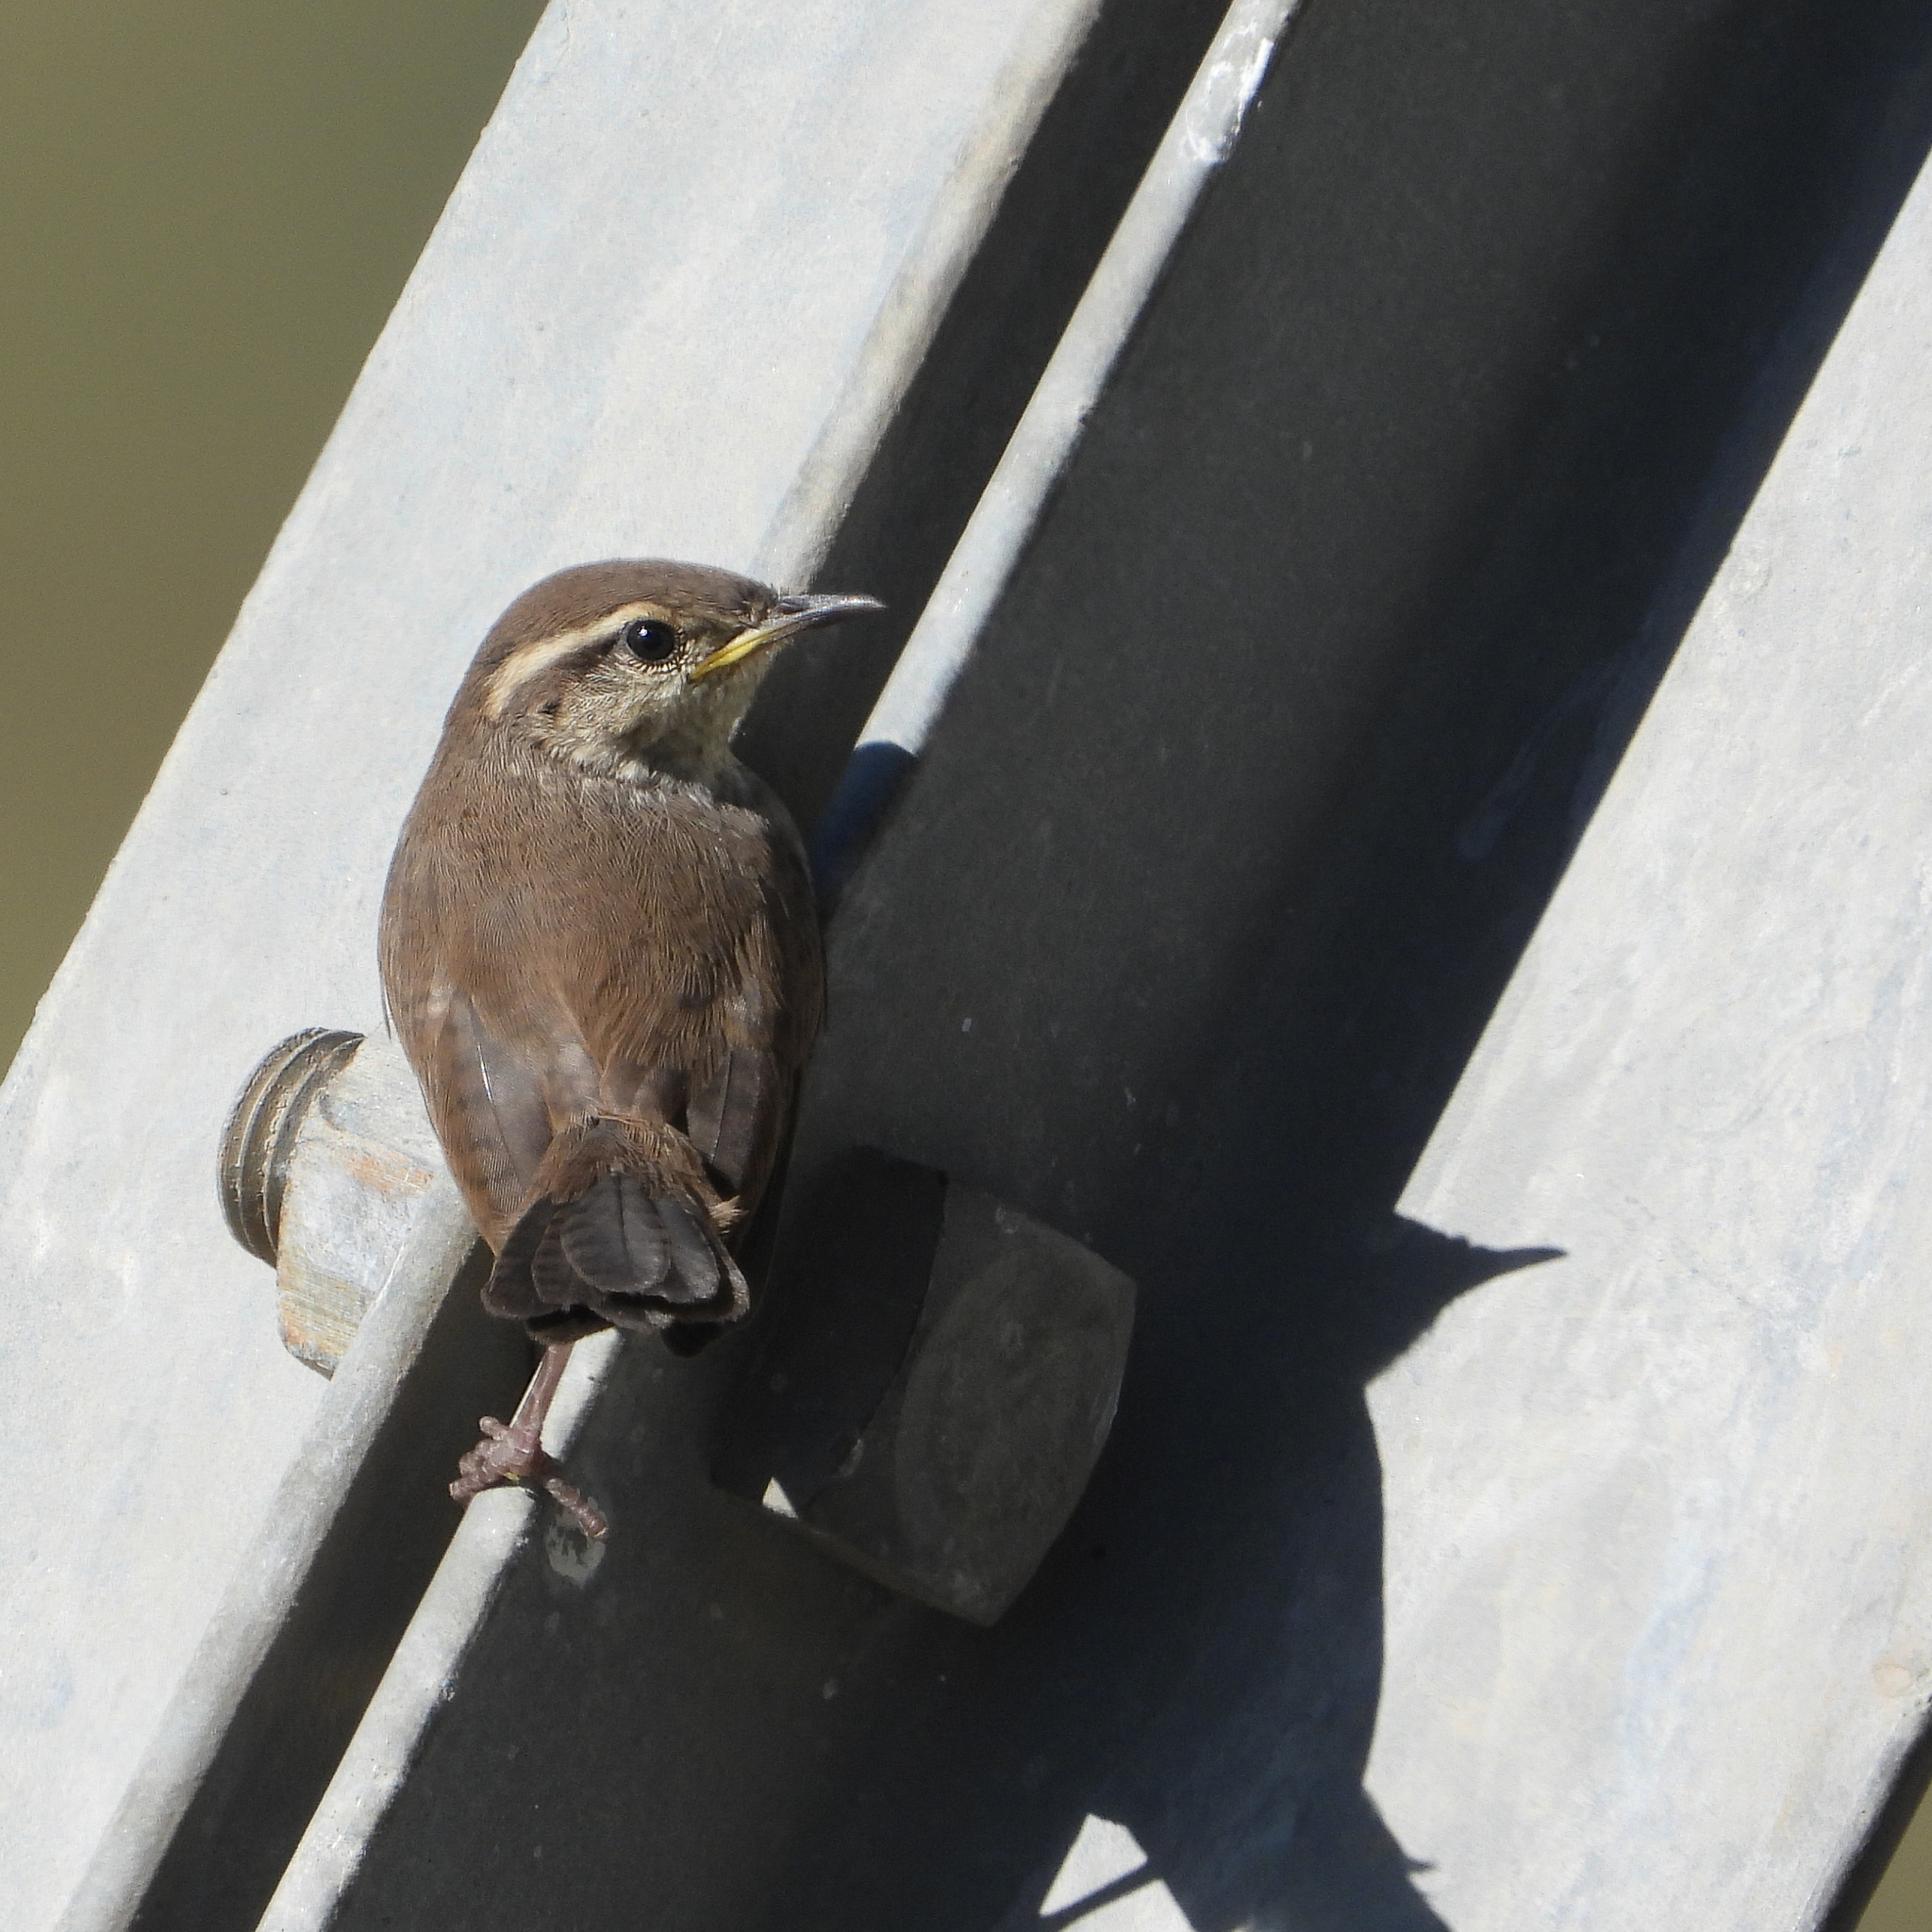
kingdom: Animalia
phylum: Chordata
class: Aves
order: Passeriformes
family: Troglodytidae
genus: Thryomanes
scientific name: Thryomanes bewickii
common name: Bewick's wren
